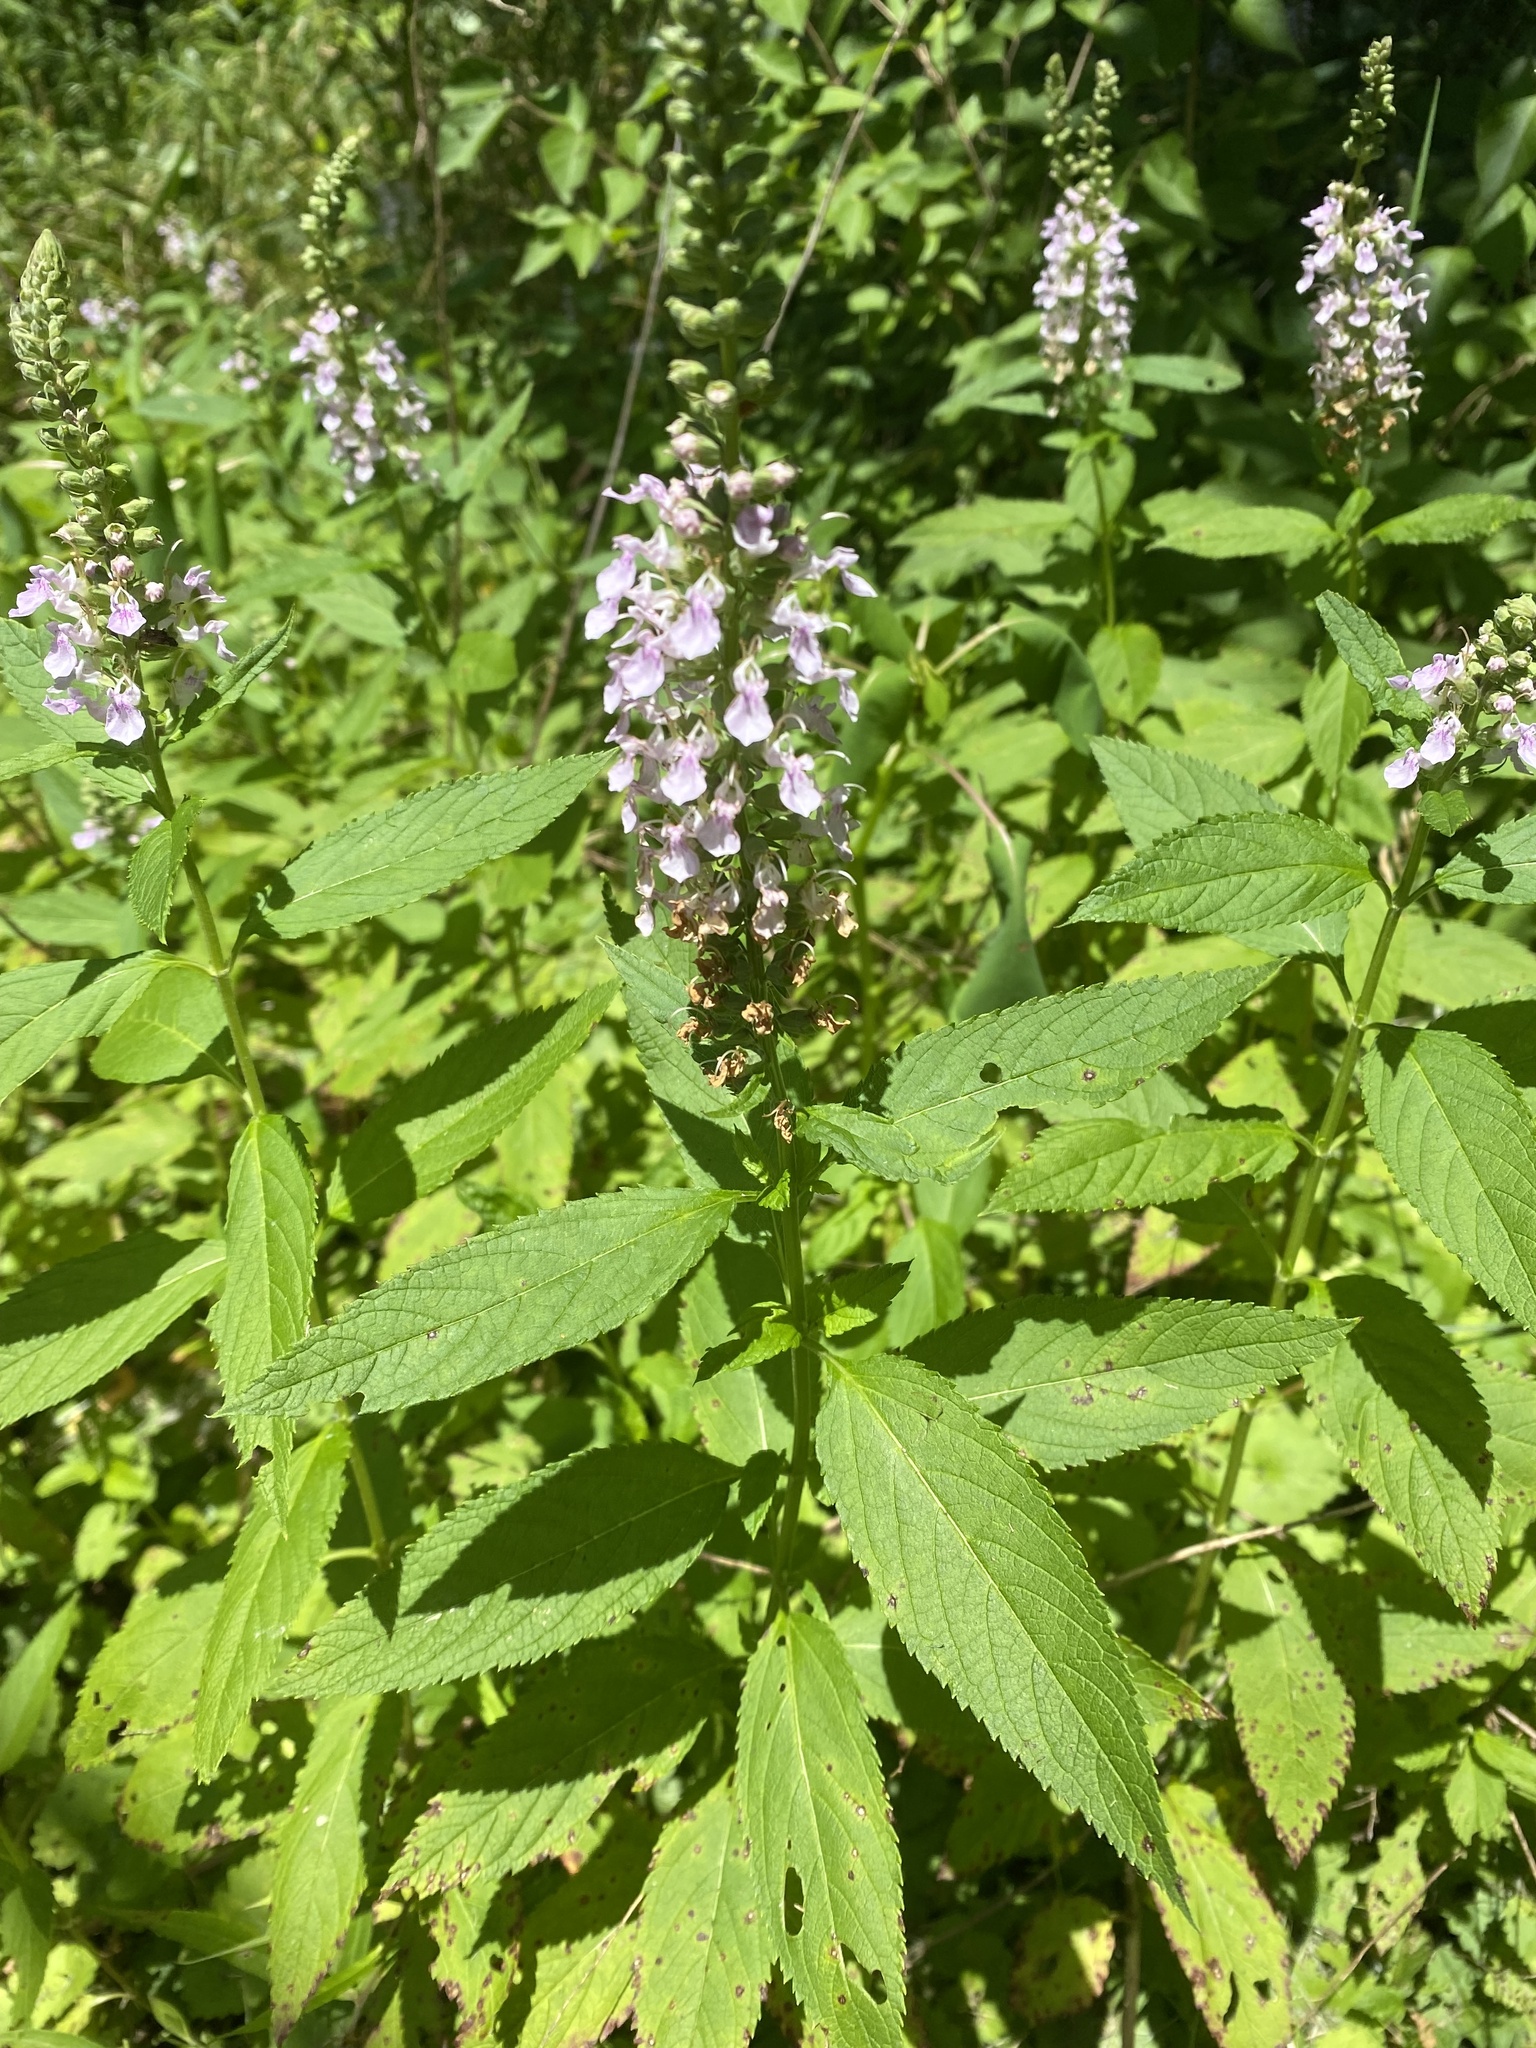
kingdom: Plantae
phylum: Tracheophyta
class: Magnoliopsida
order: Lamiales
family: Lamiaceae
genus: Teucrium
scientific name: Teucrium canadense
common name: American germander
